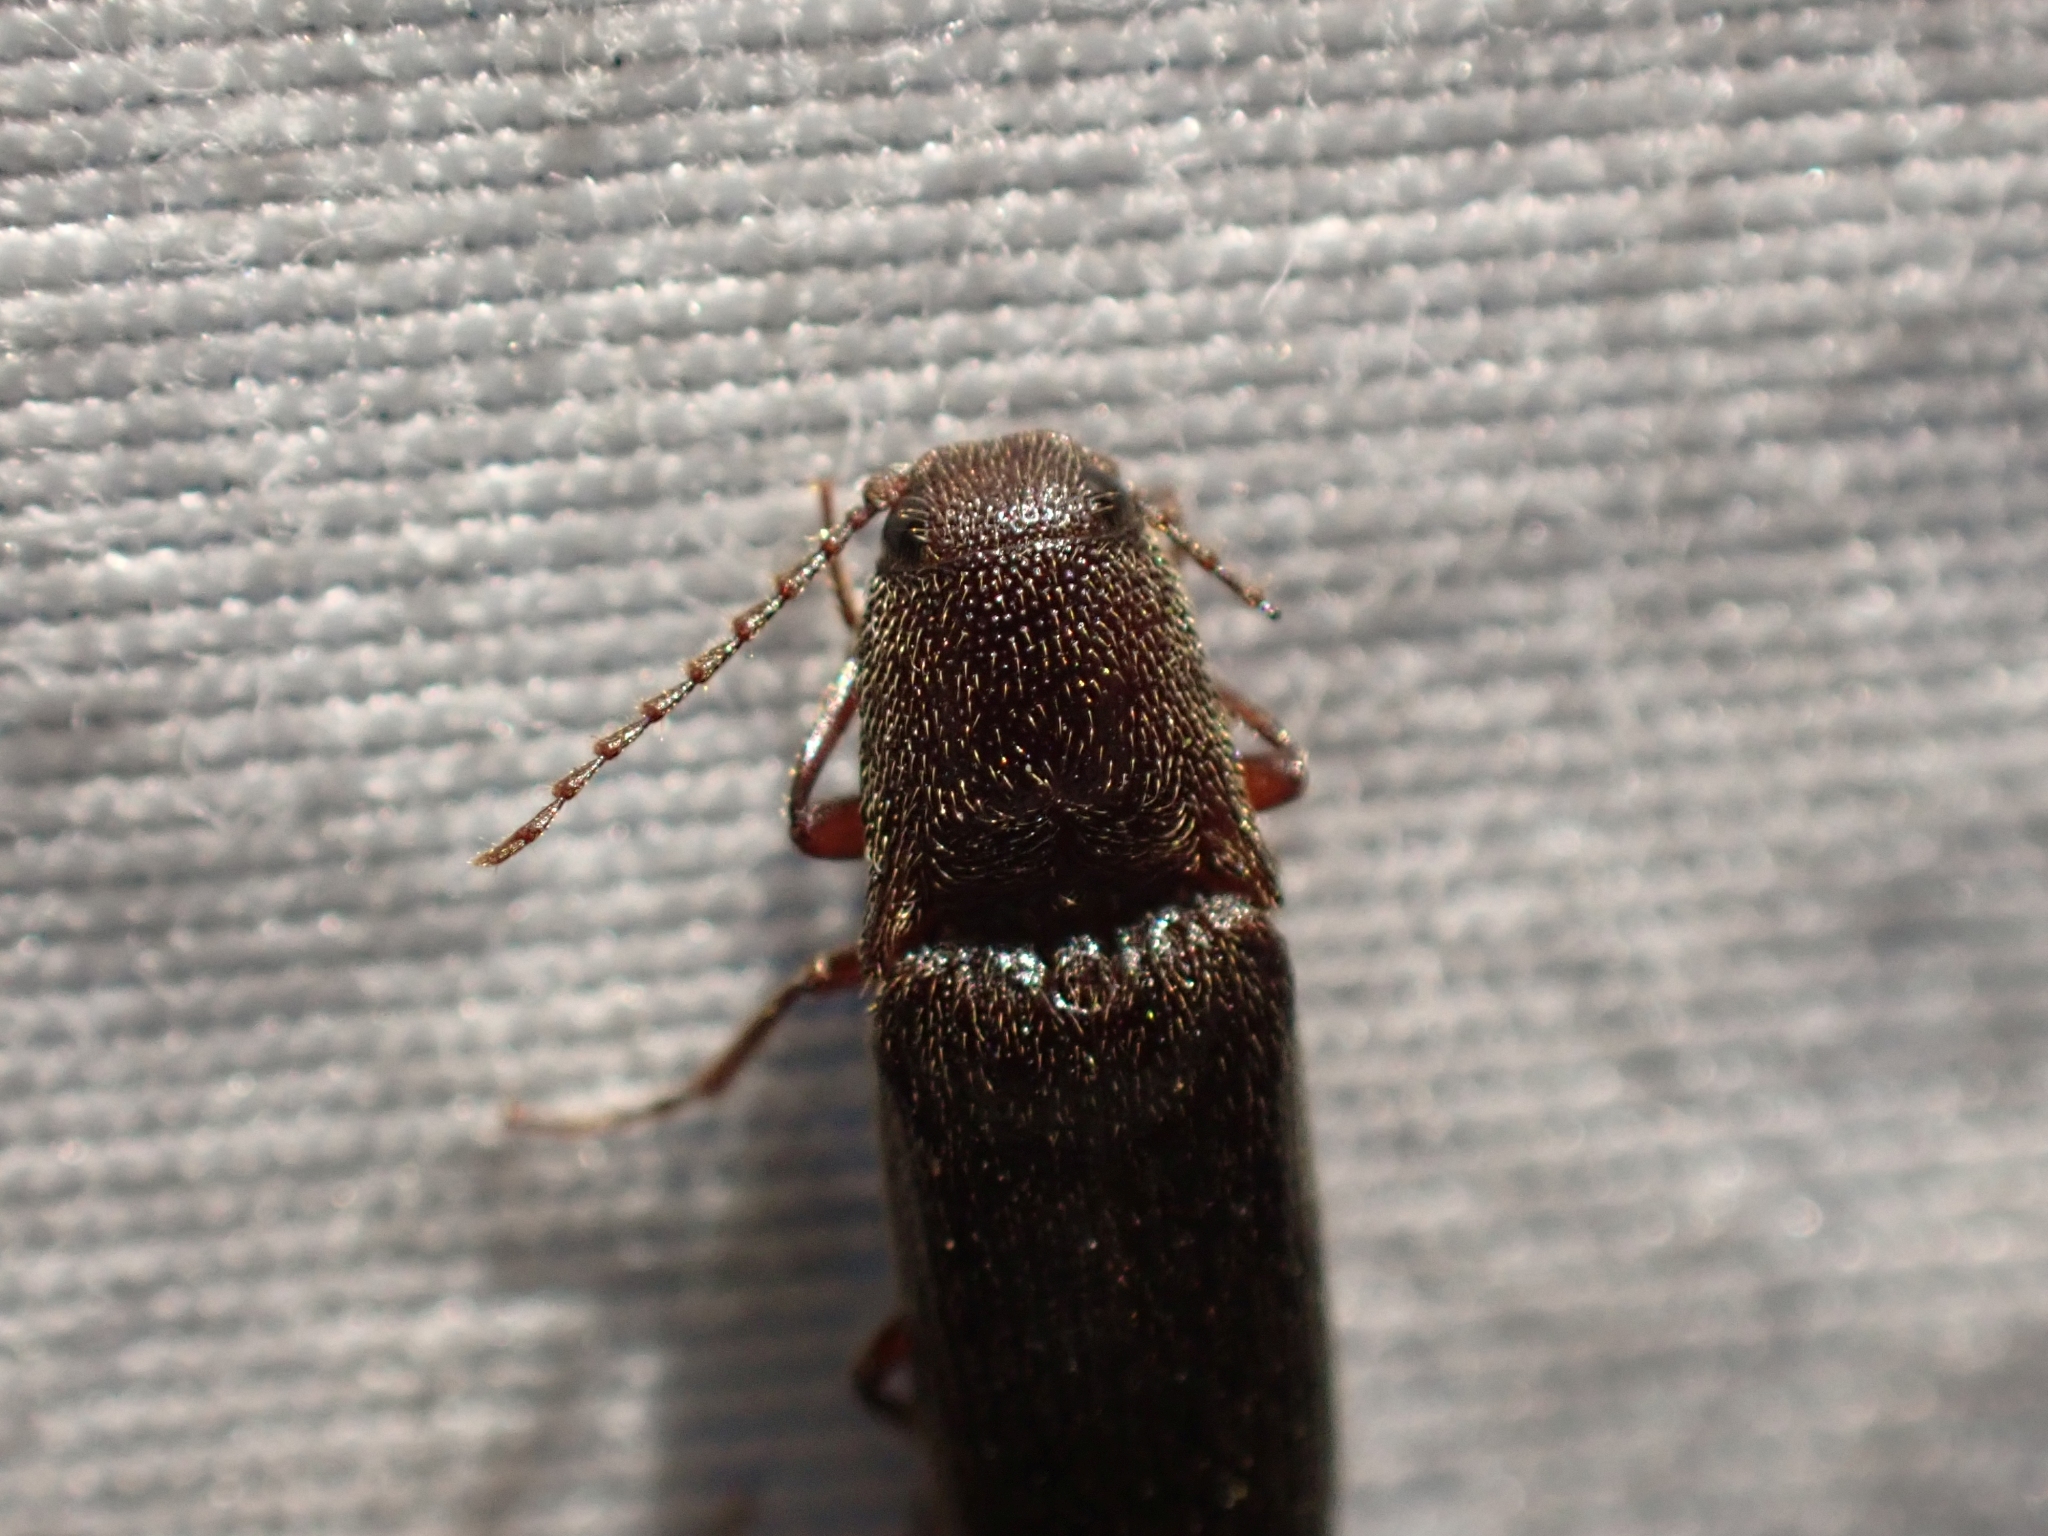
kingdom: Animalia
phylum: Arthropoda
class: Insecta
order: Coleoptera
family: Elateridae
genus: Melanotus
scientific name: Melanotus longulus
